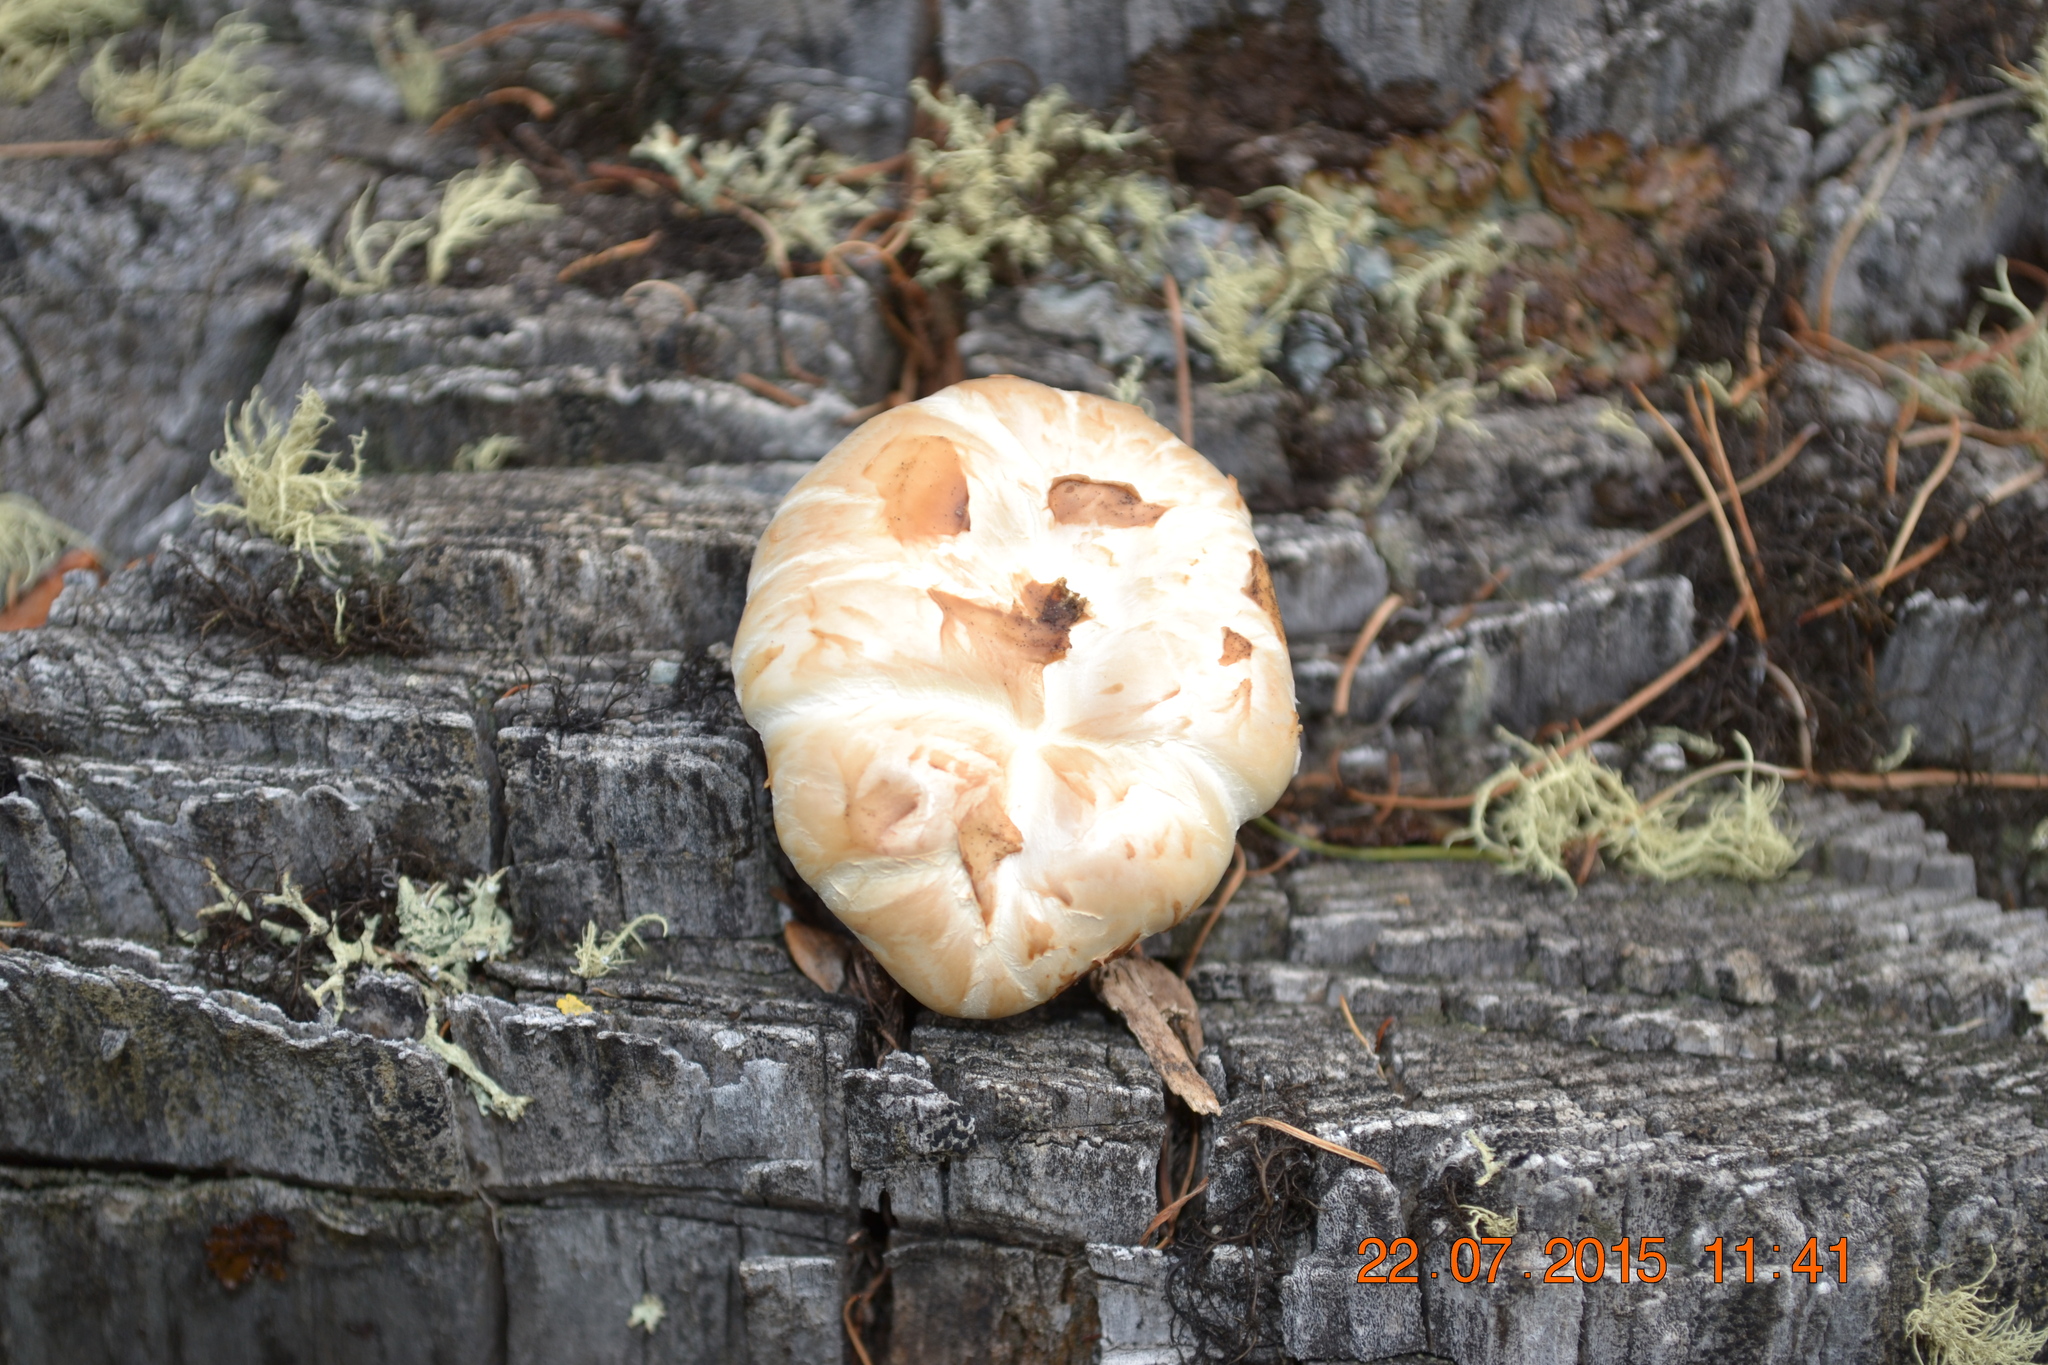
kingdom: Fungi
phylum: Basidiomycota
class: Agaricomycetes
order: Gloeophyllales
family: Gloeophyllaceae
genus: Neolentinus
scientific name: Neolentinus lepideus
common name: Scaly sawgill
